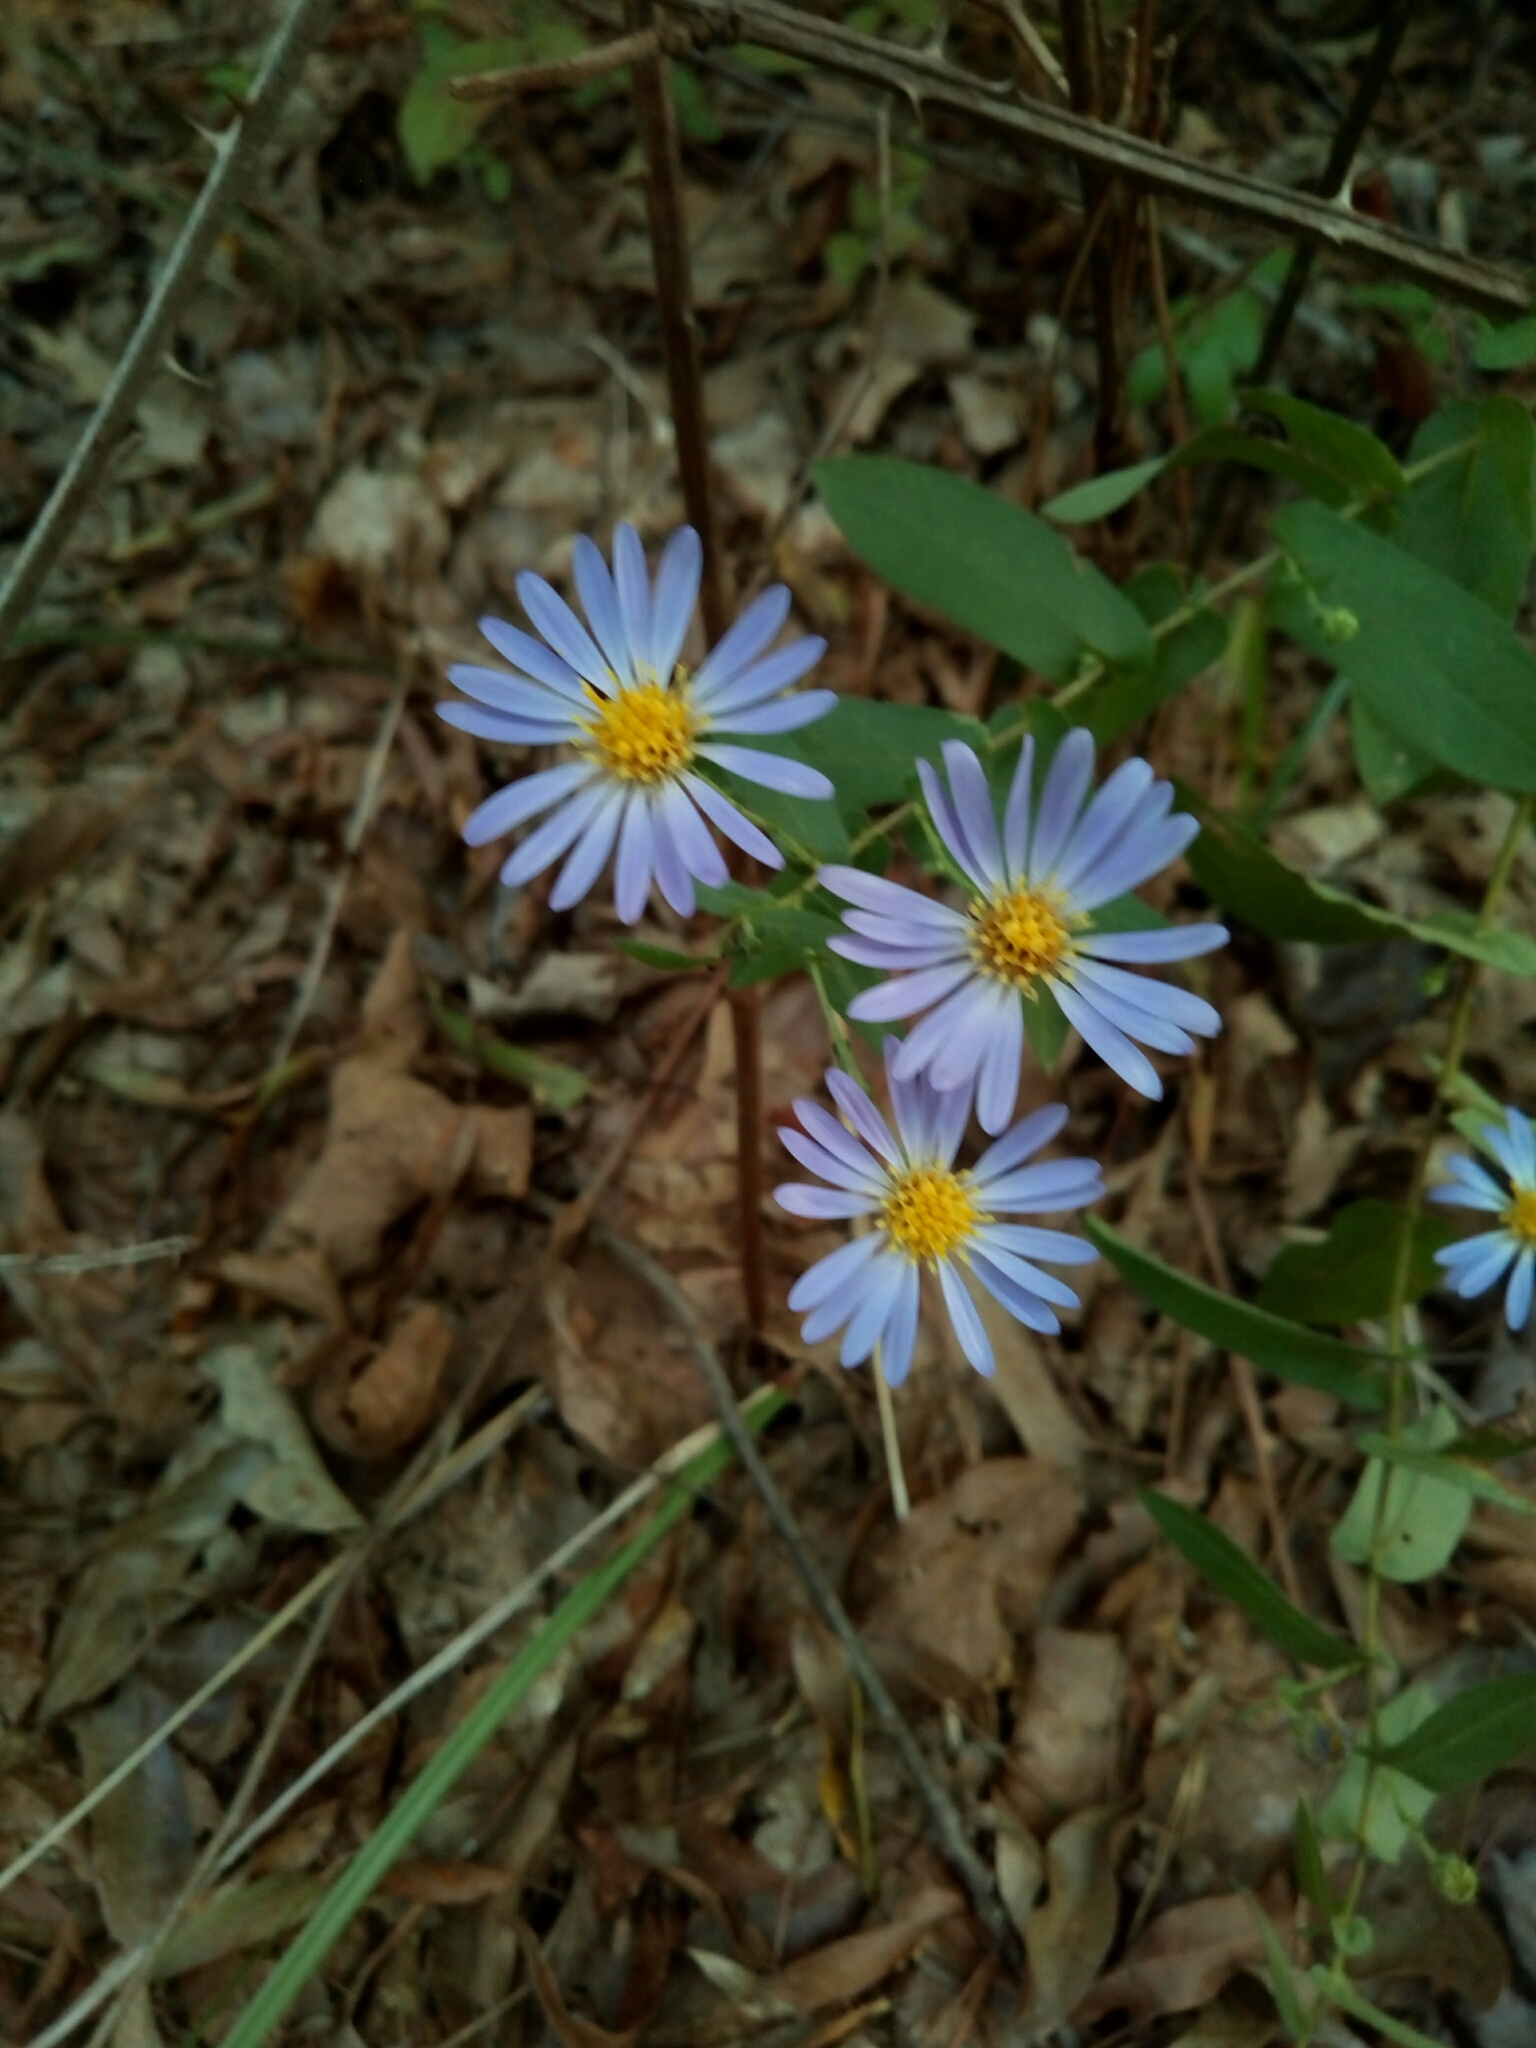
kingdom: Plantae
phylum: Tracheophyta
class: Magnoliopsida
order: Asterales
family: Asteraceae
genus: Symphyotrichum
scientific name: Symphyotrichum patens
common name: Late purple aster
